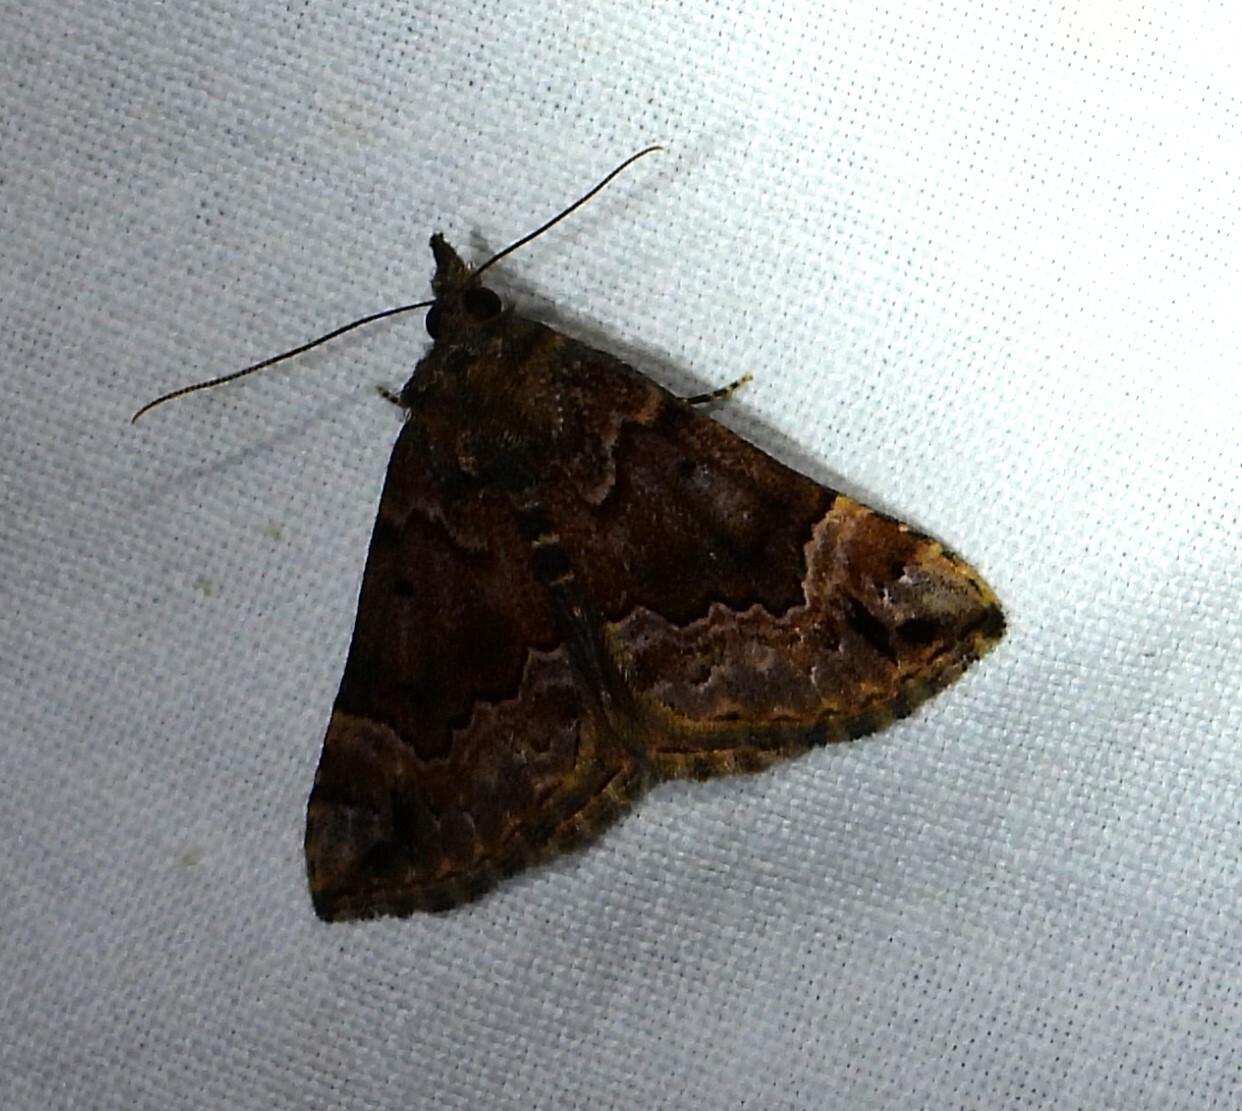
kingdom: Animalia
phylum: Arthropoda
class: Insecta
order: Lepidoptera
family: Erebidae
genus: Hypena
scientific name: Hypena palparia
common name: Mottled bomolocha moth
